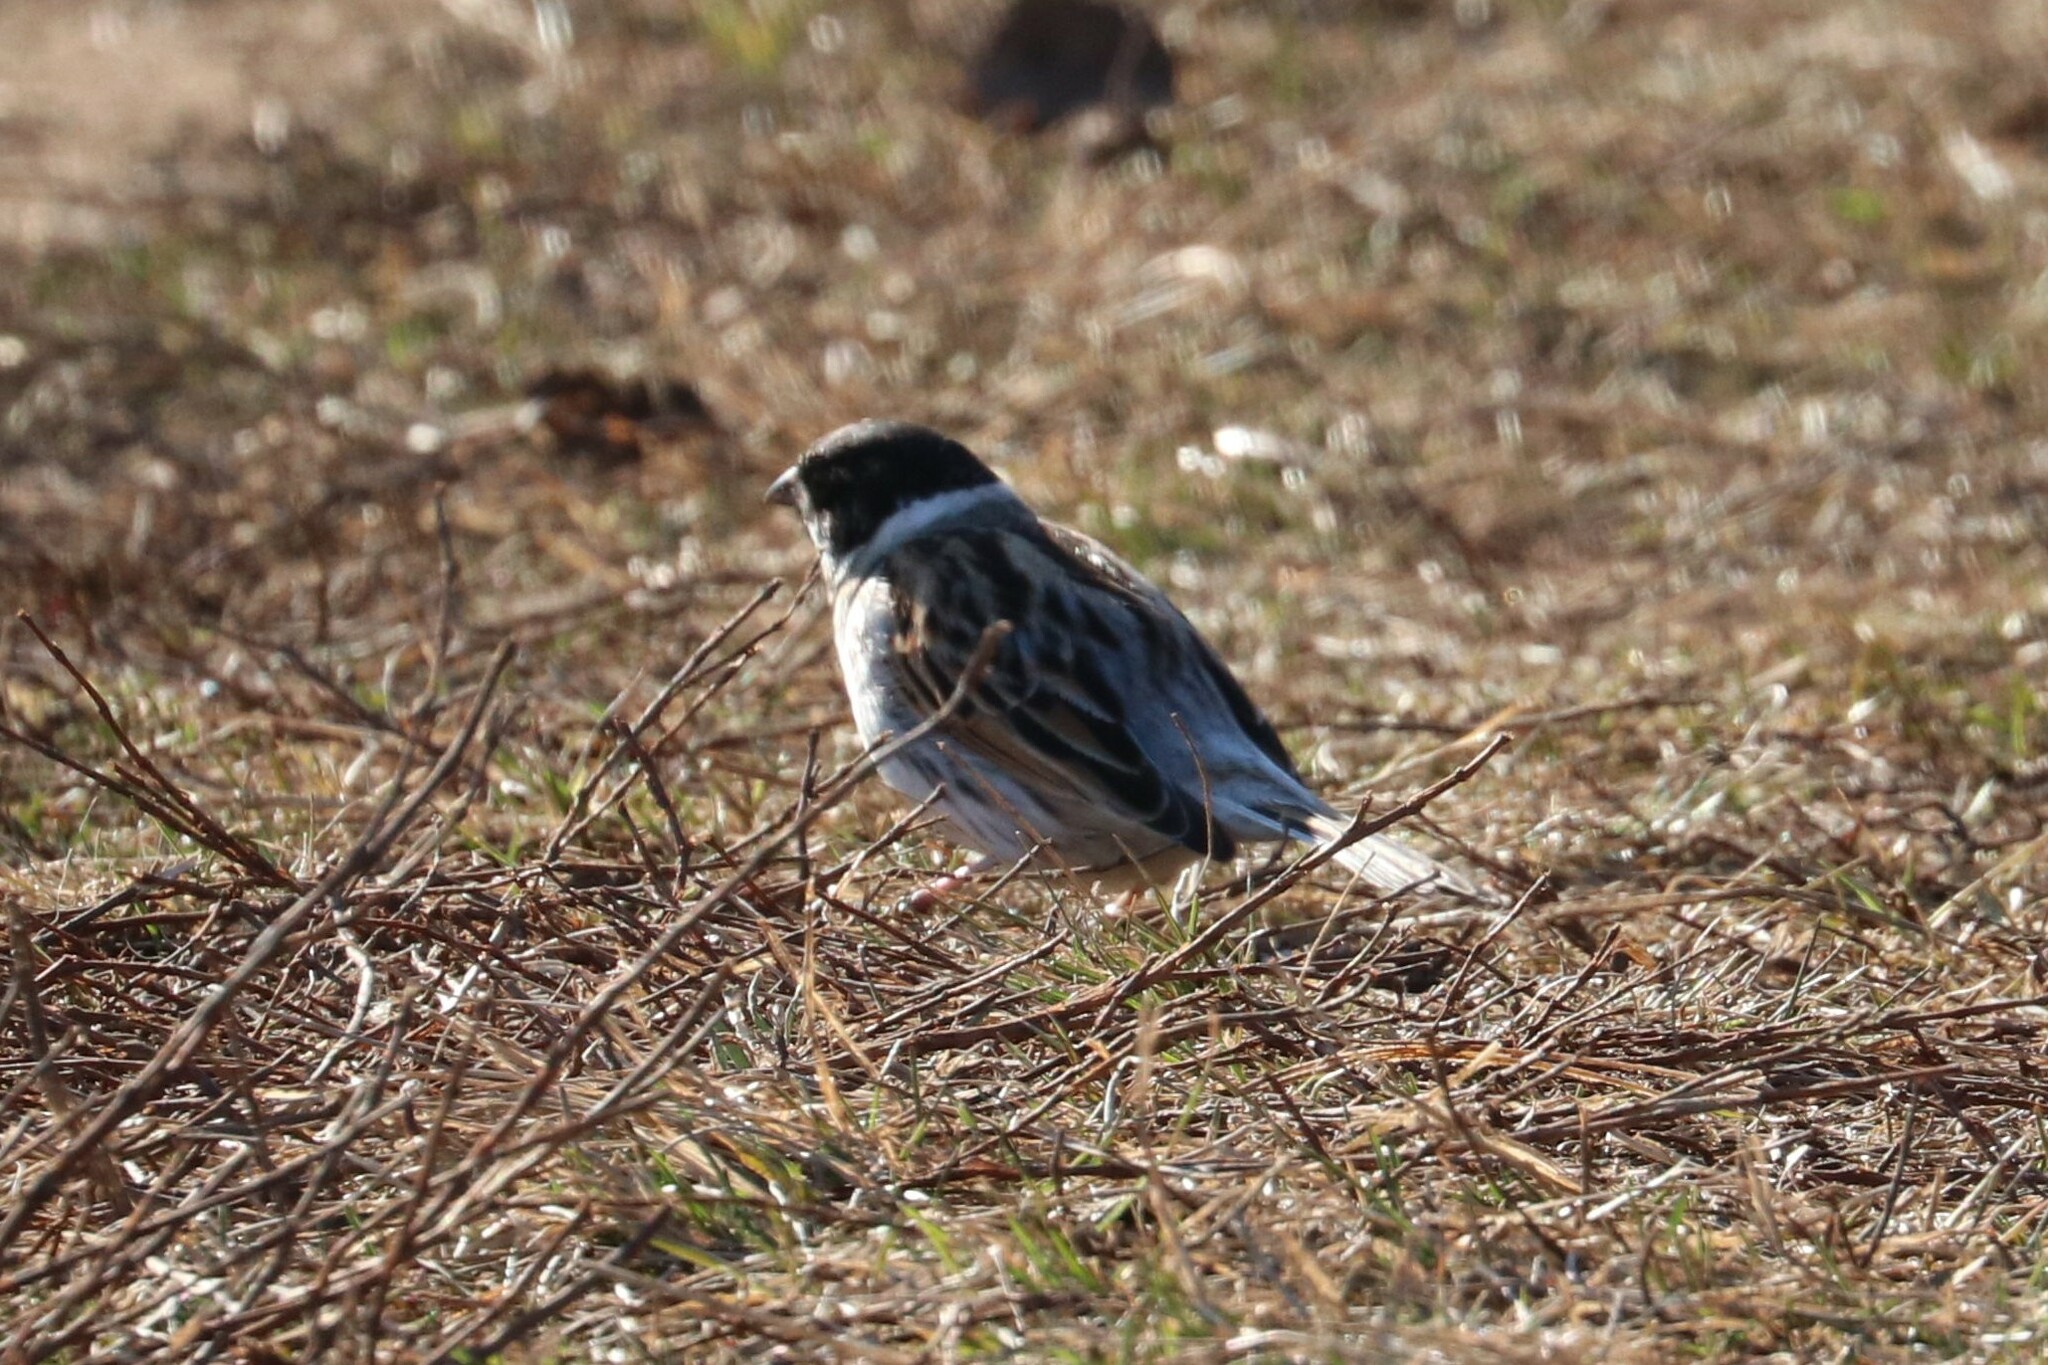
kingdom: Animalia
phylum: Chordata
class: Aves
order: Passeriformes
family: Emberizidae
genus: Emberiza
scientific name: Emberiza schoeniclus
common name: Reed bunting
